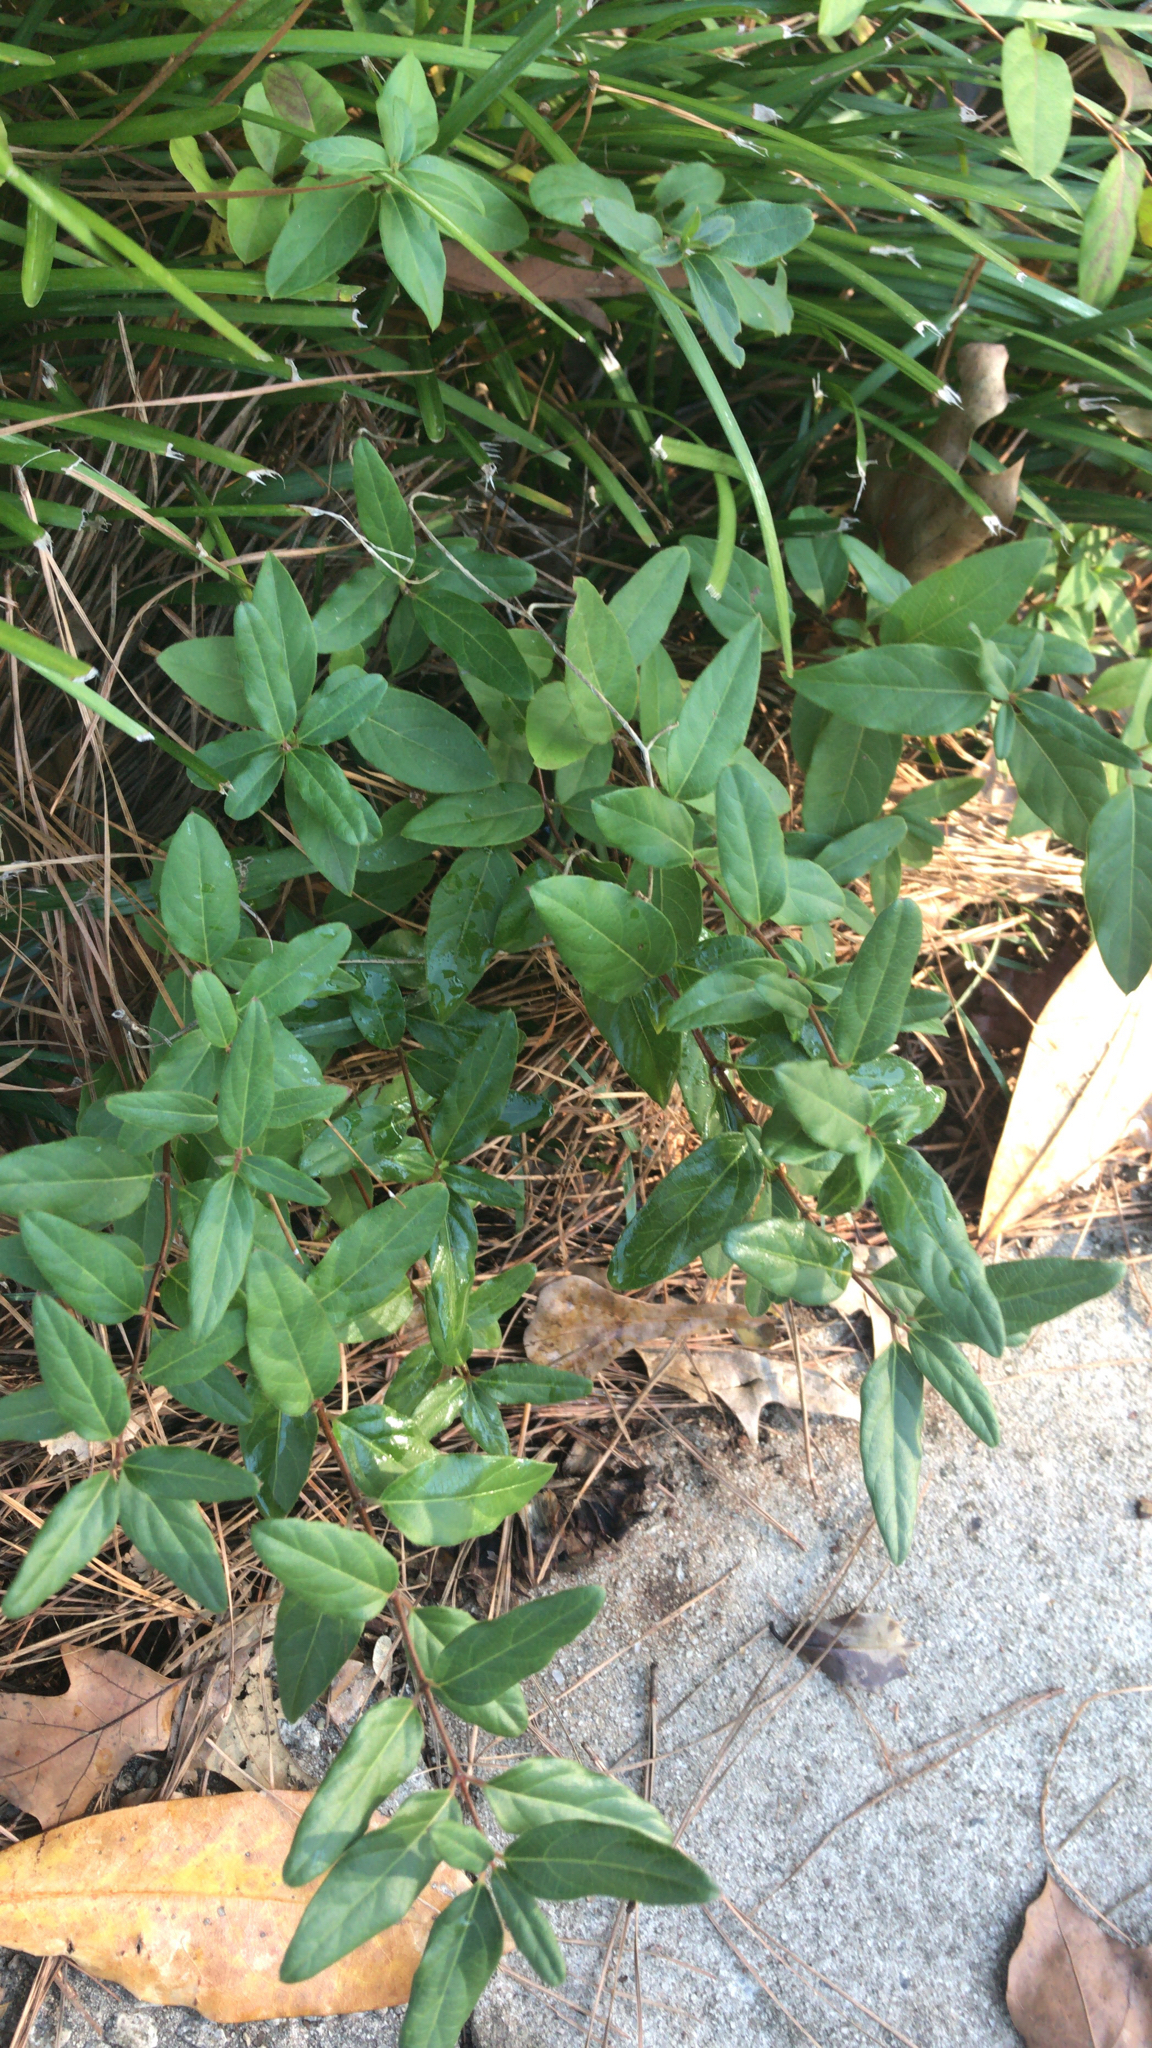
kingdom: Plantae
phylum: Tracheophyta
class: Magnoliopsida
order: Dipsacales
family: Caprifoliaceae
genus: Lonicera
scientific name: Lonicera japonica
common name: Japanese honeysuckle
